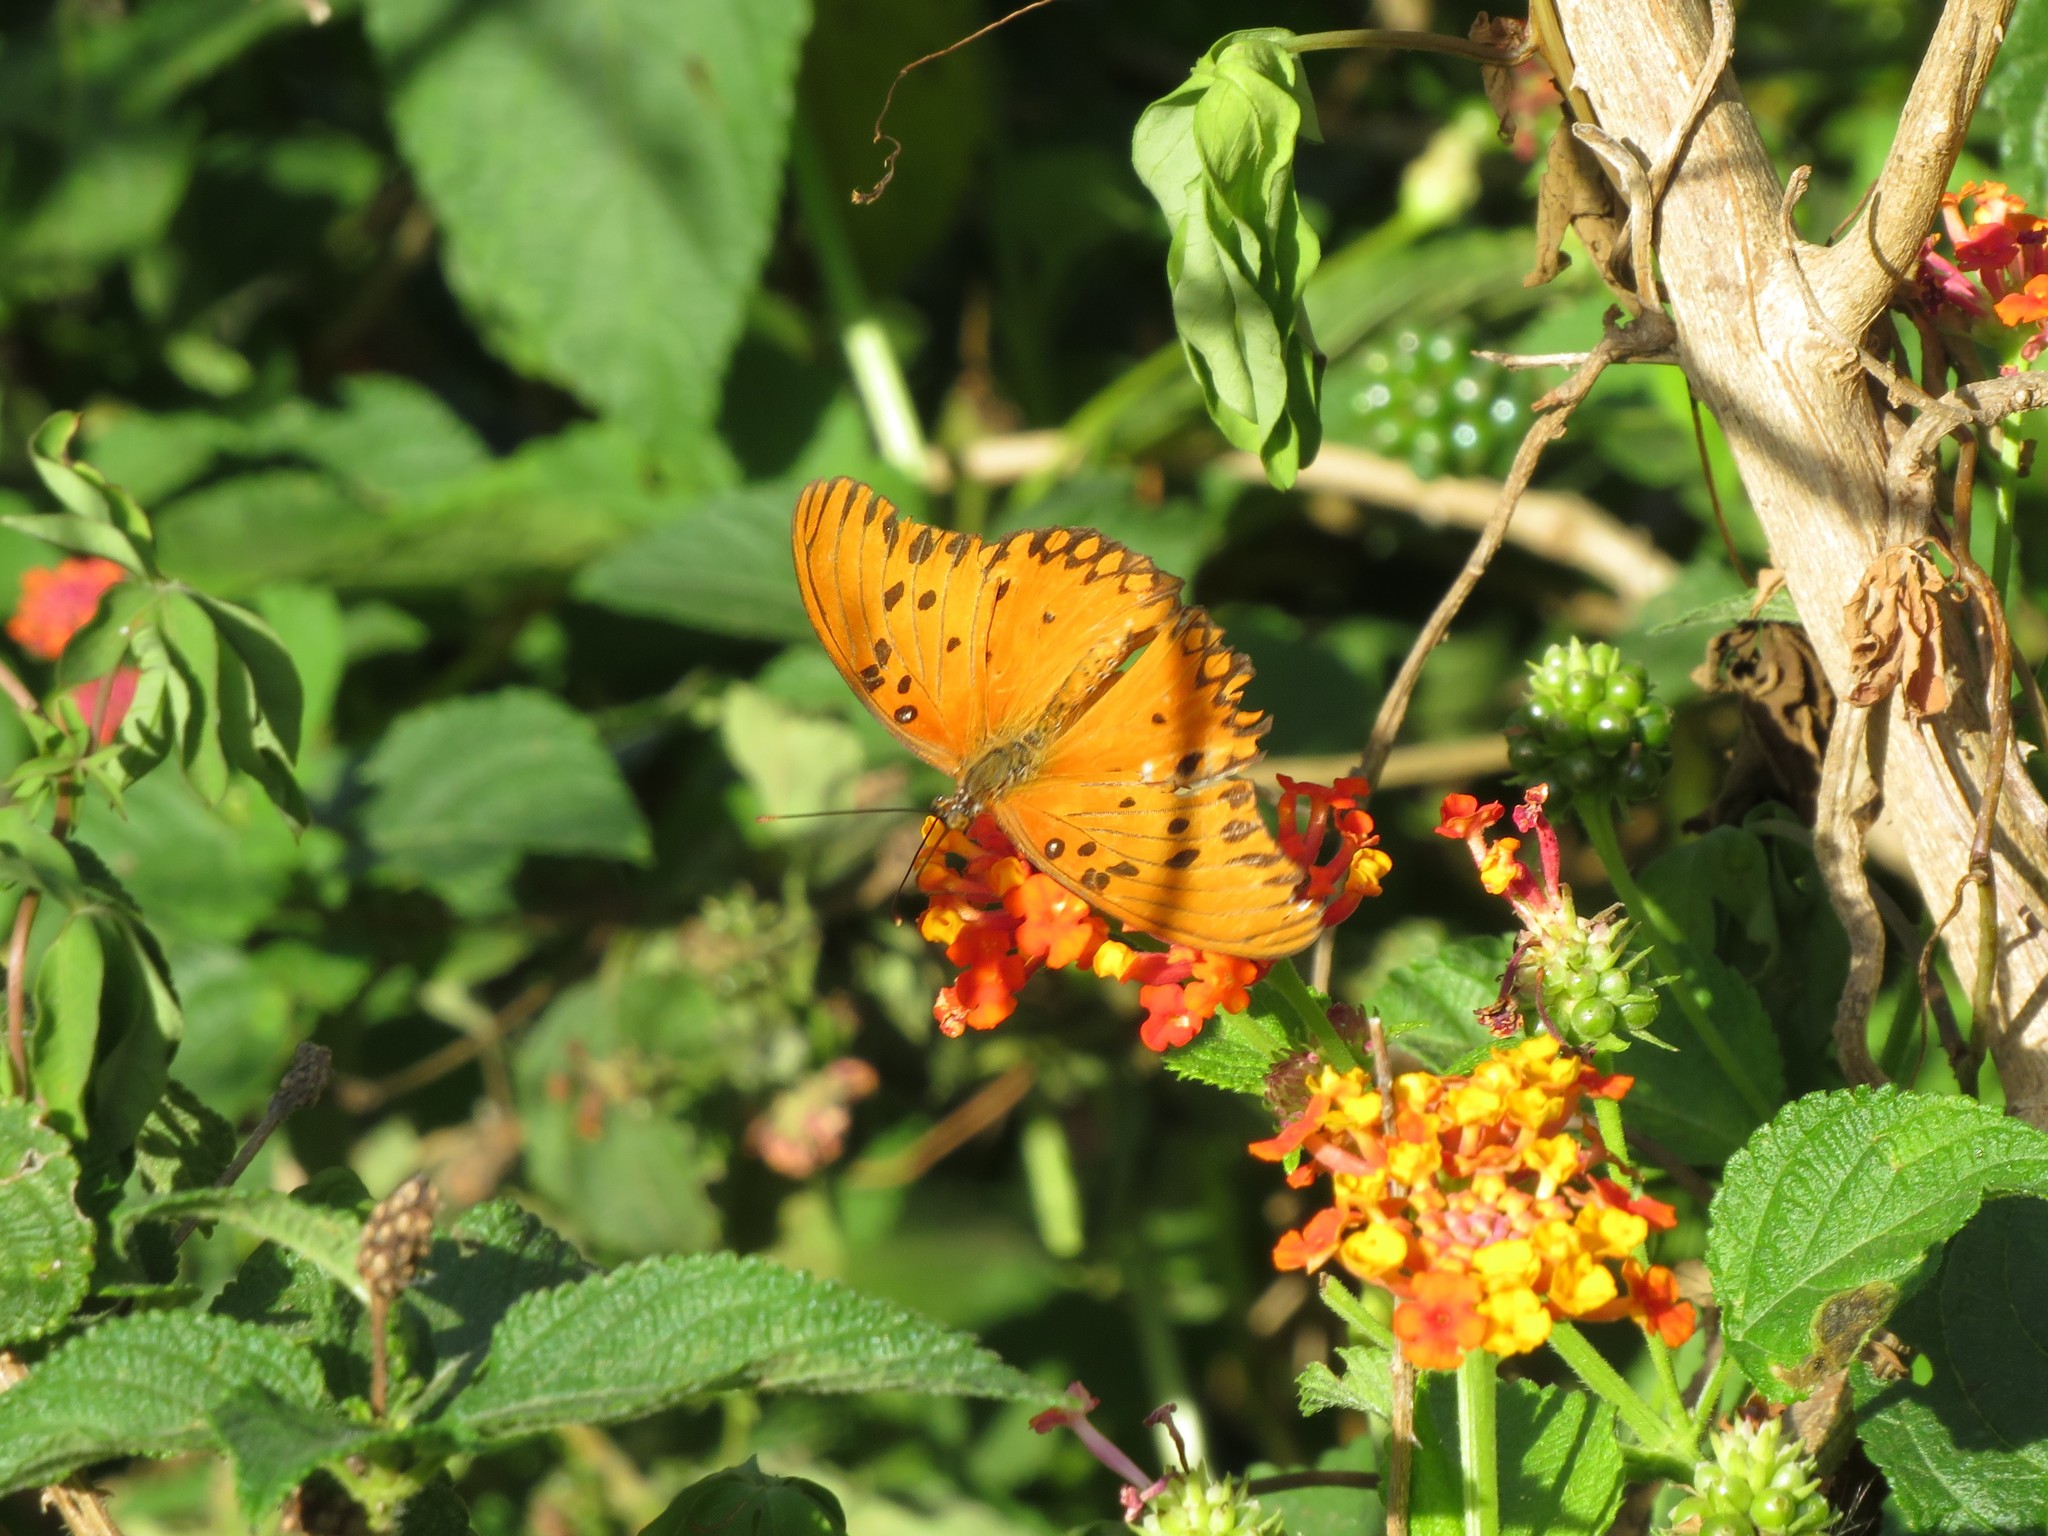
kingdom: Animalia
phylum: Arthropoda
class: Insecta
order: Lepidoptera
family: Nymphalidae
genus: Dione
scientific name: Dione vanillae
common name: Gulf fritillary
